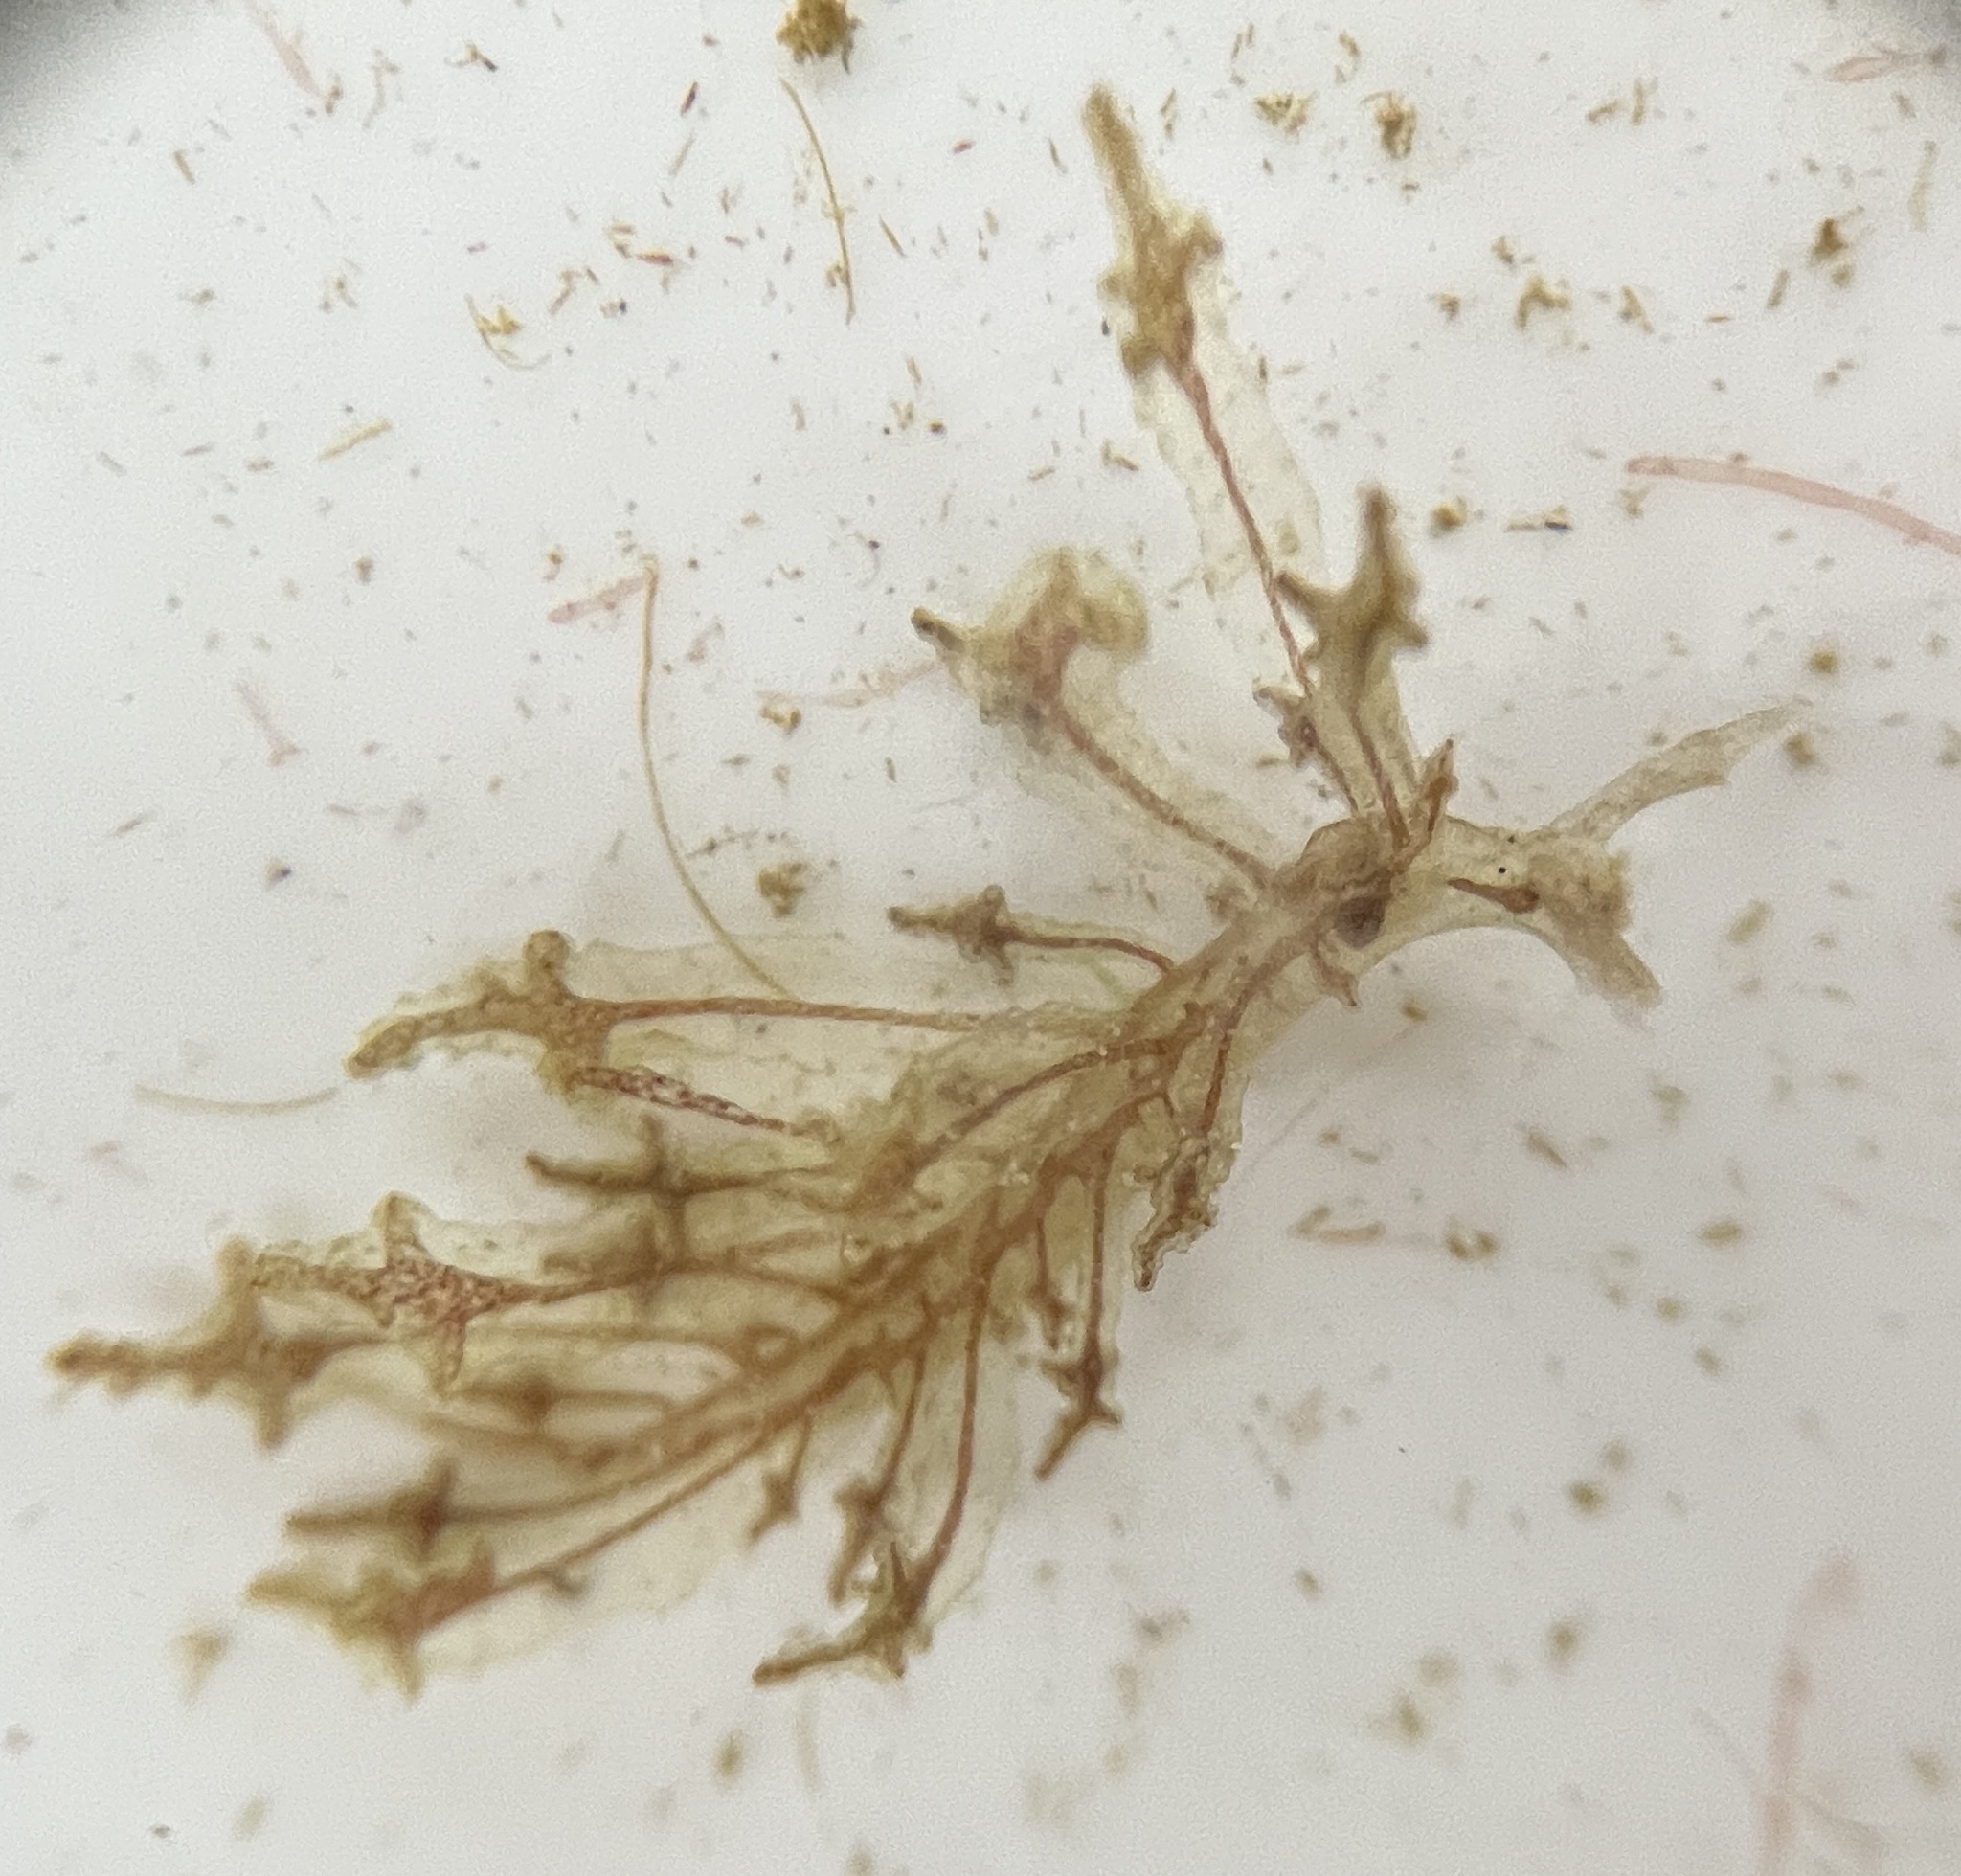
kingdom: Animalia
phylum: Mollusca
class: Gastropoda
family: Hermaeidae
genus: Hermaea
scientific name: Hermaea cruciata
